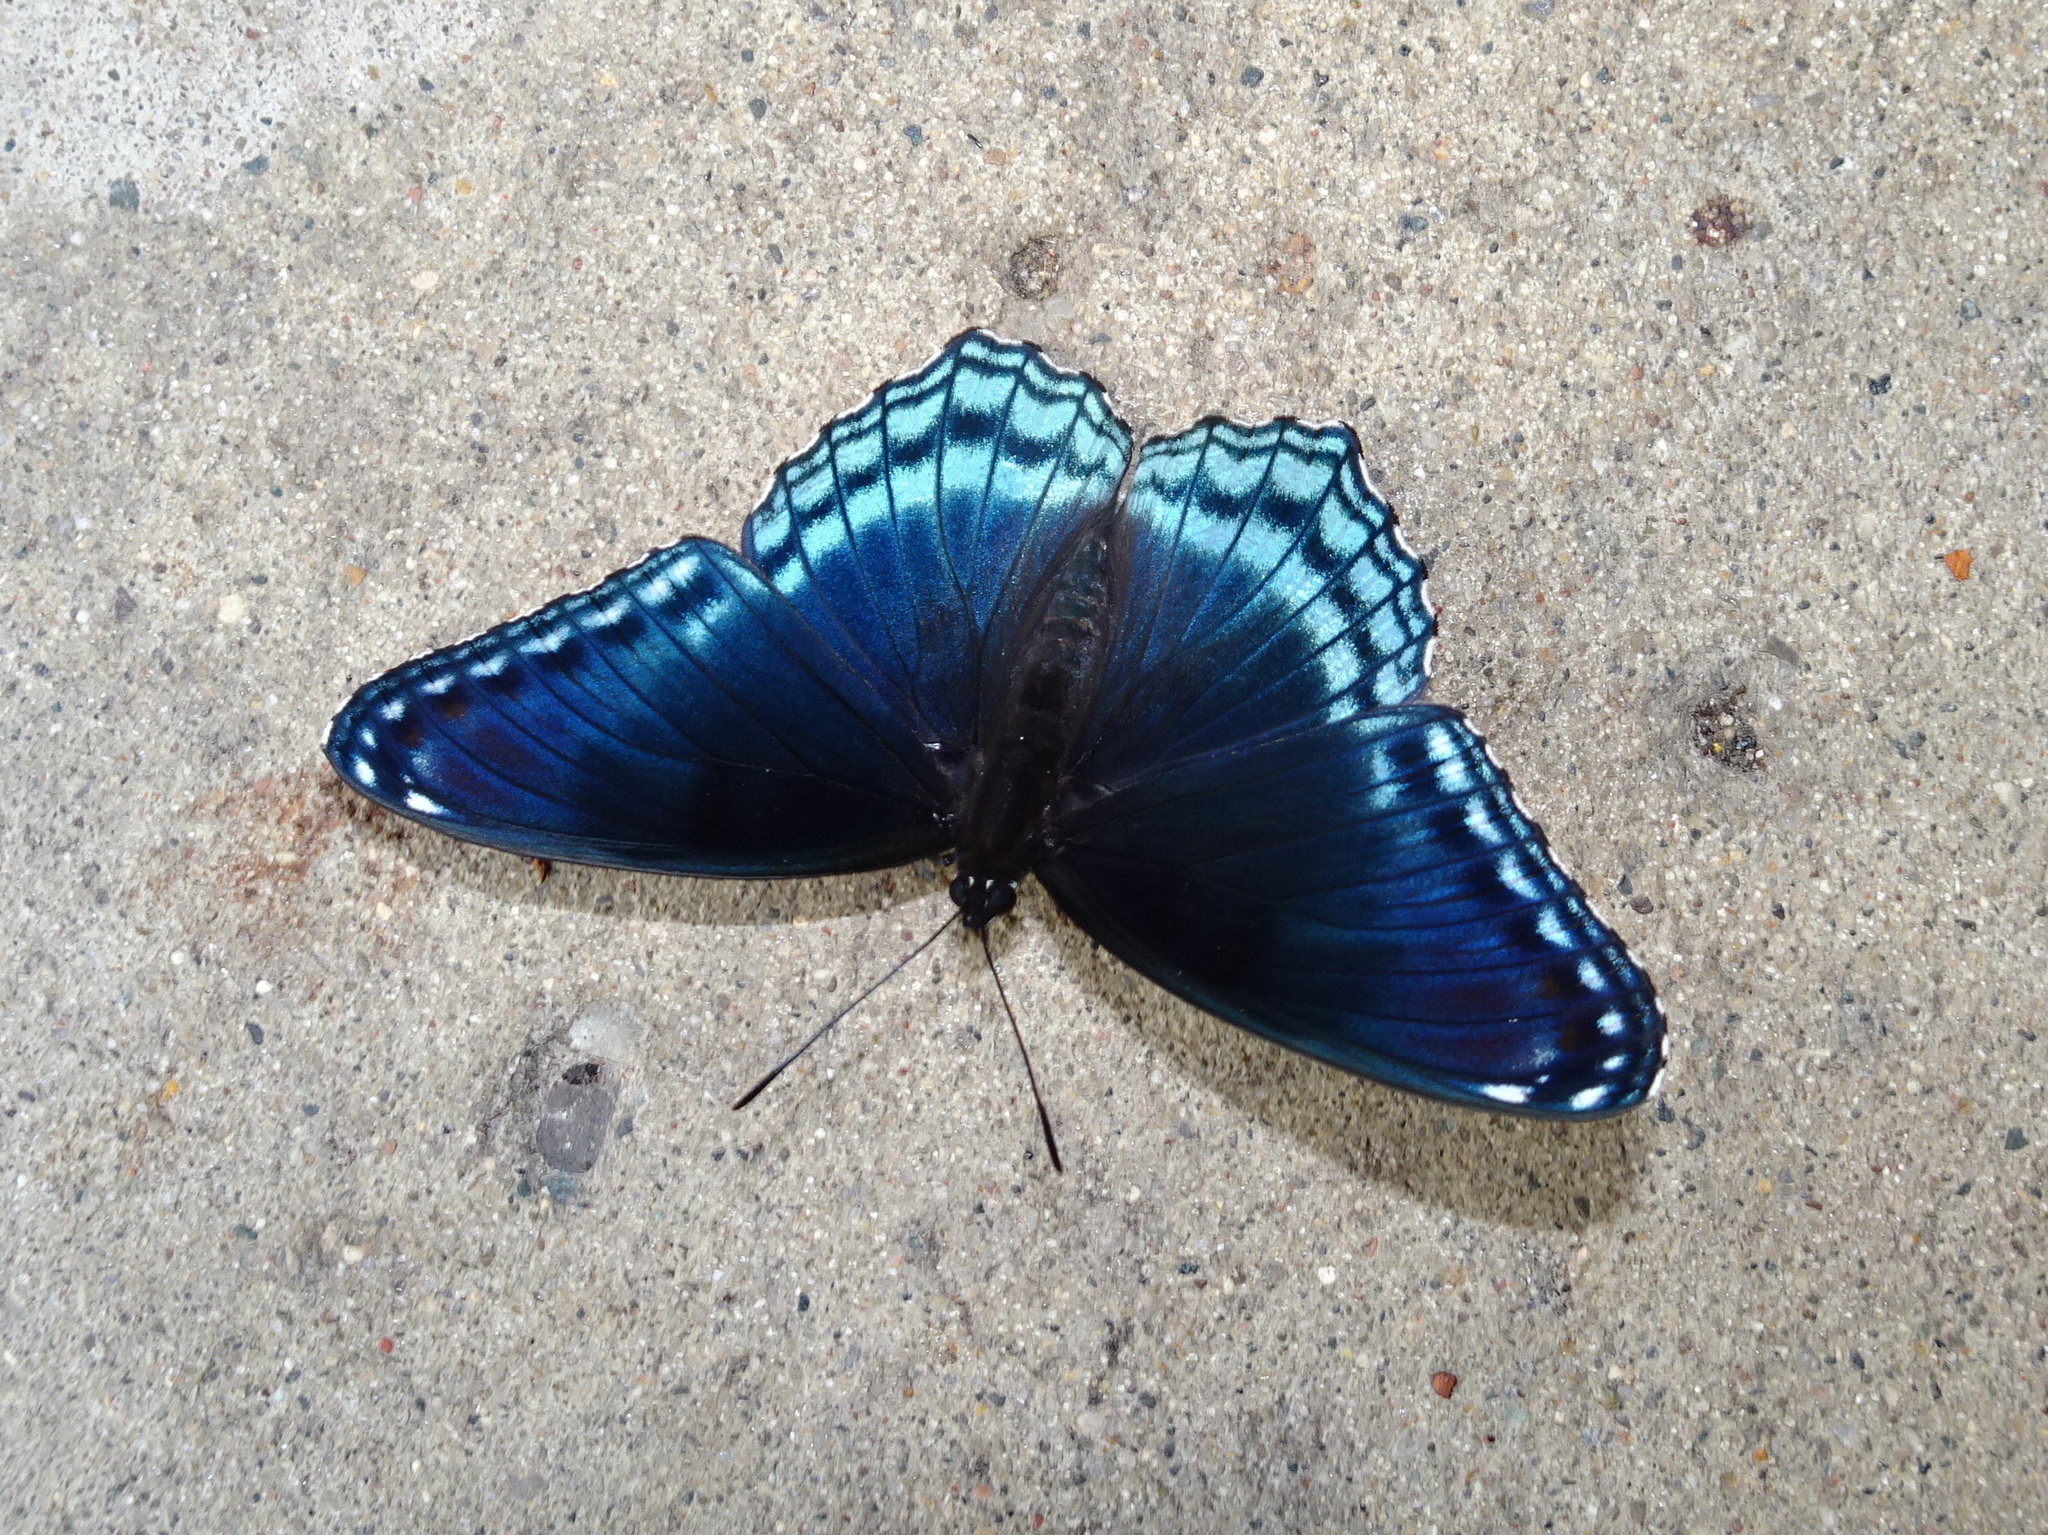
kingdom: Animalia
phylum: Arthropoda
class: Insecta
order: Lepidoptera
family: Nymphalidae
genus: Limenitis
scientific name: Limenitis astyanax
